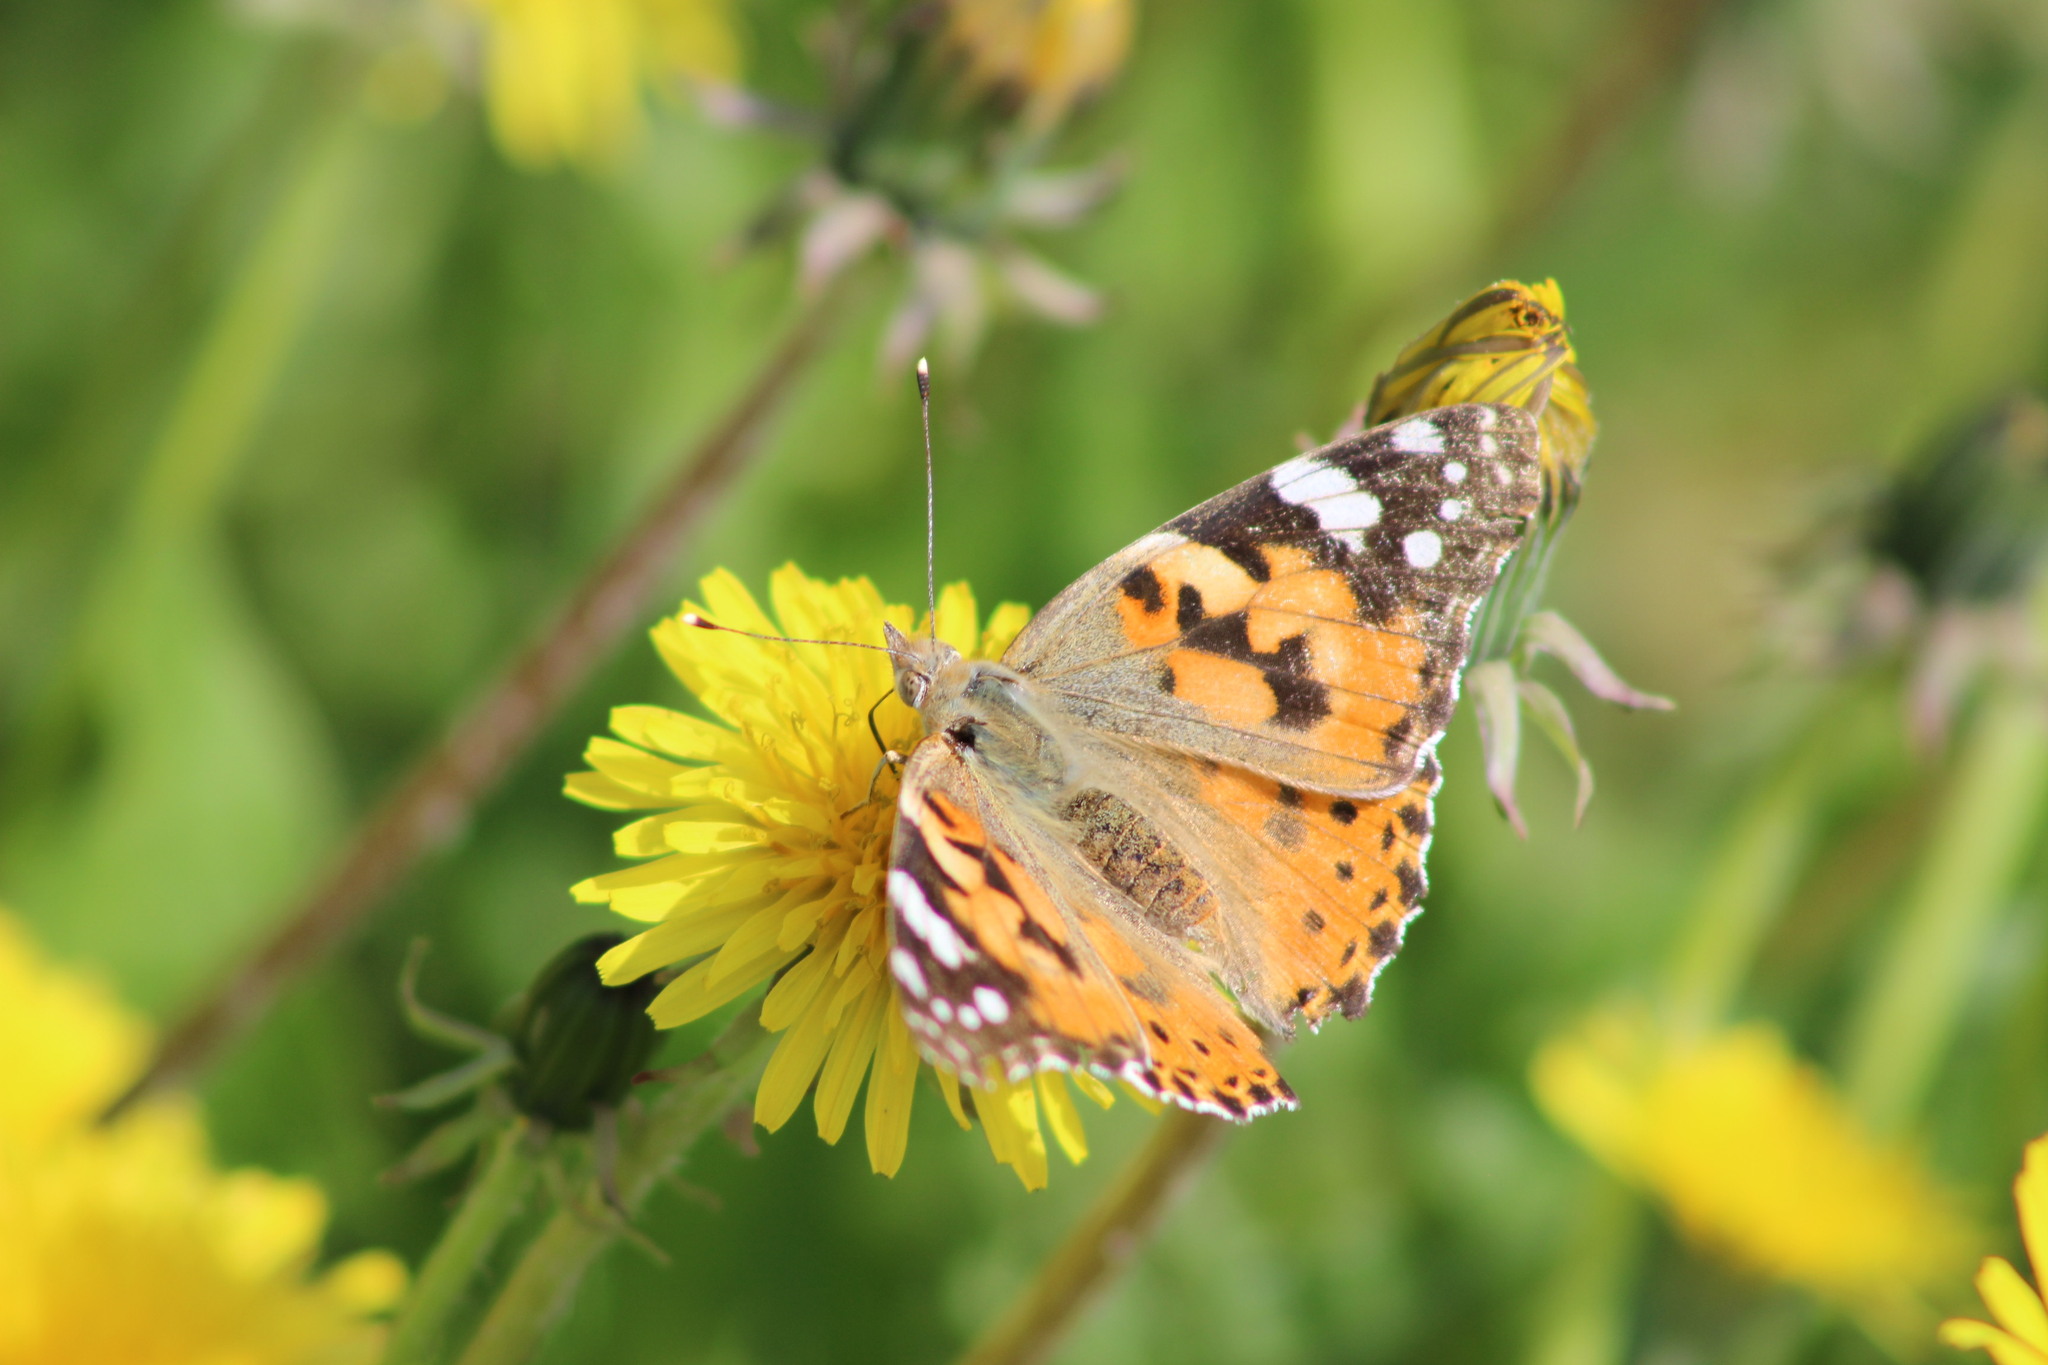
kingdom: Animalia
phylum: Arthropoda
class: Insecta
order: Lepidoptera
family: Nymphalidae
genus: Vanessa
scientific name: Vanessa cardui
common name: Painted lady
